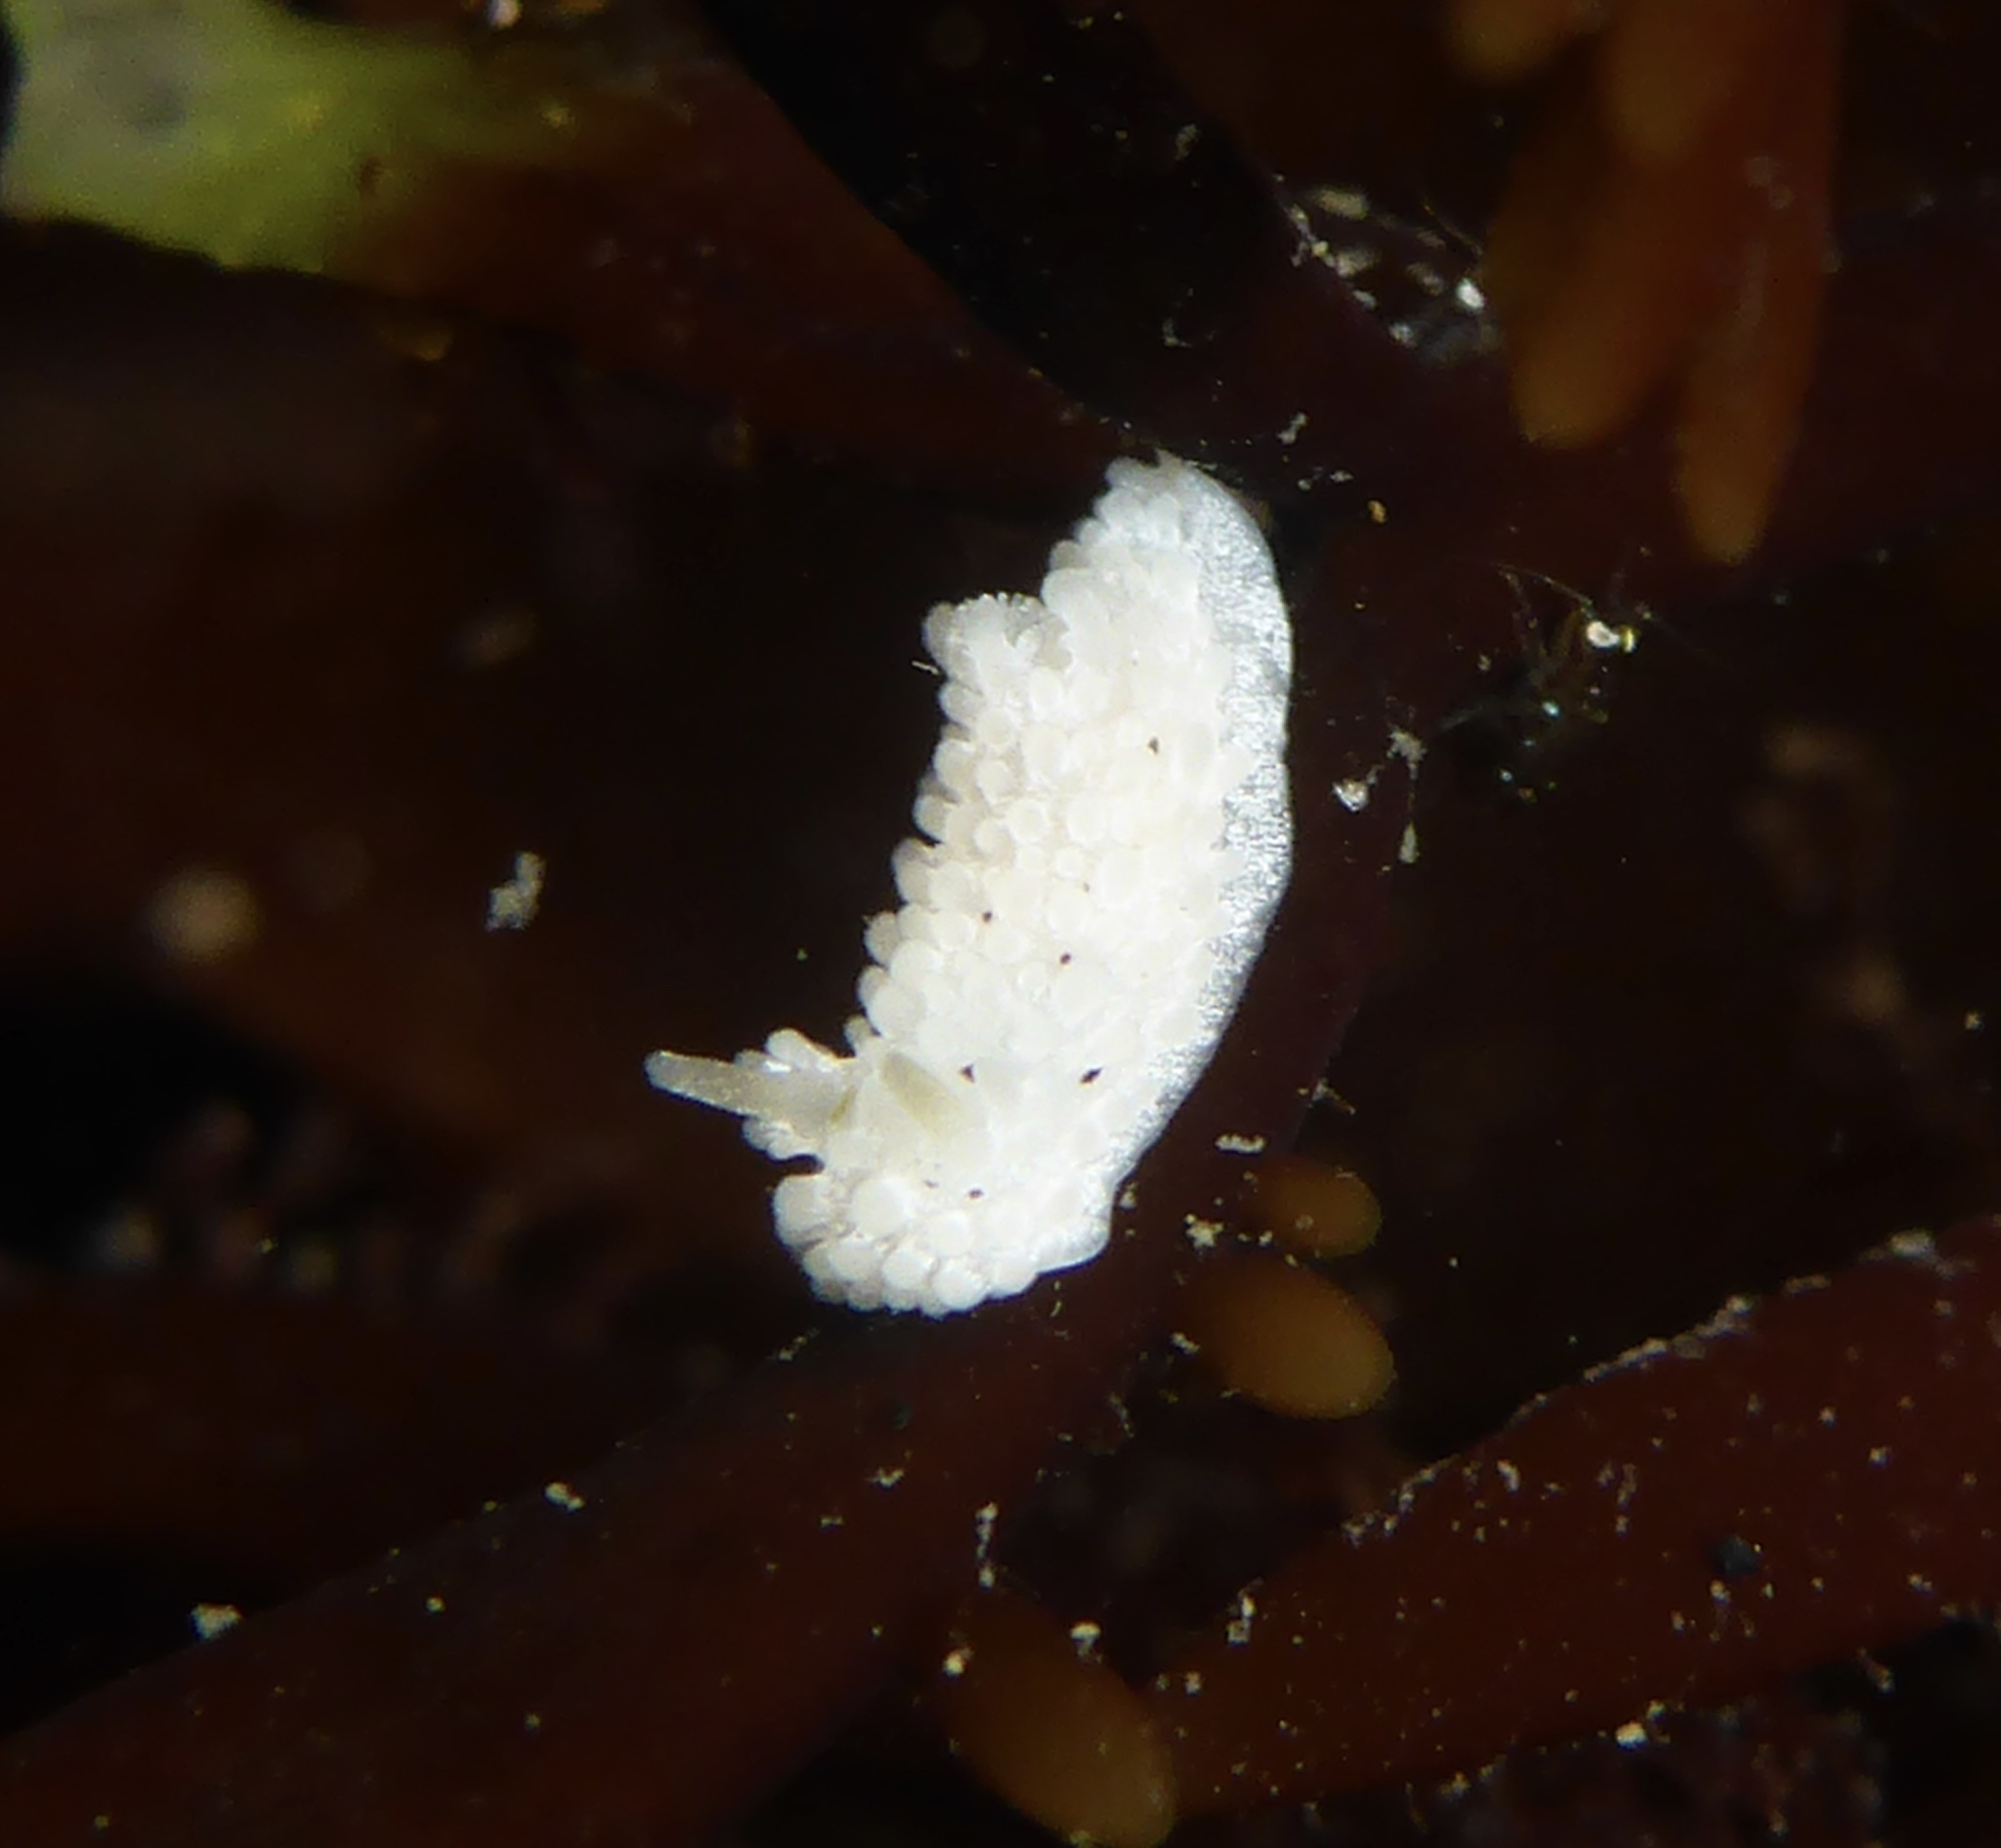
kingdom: Animalia
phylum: Mollusca
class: Gastropoda
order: Nudibranchia
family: Aegiridae
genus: Aegires
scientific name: Aegires albopunctatus
